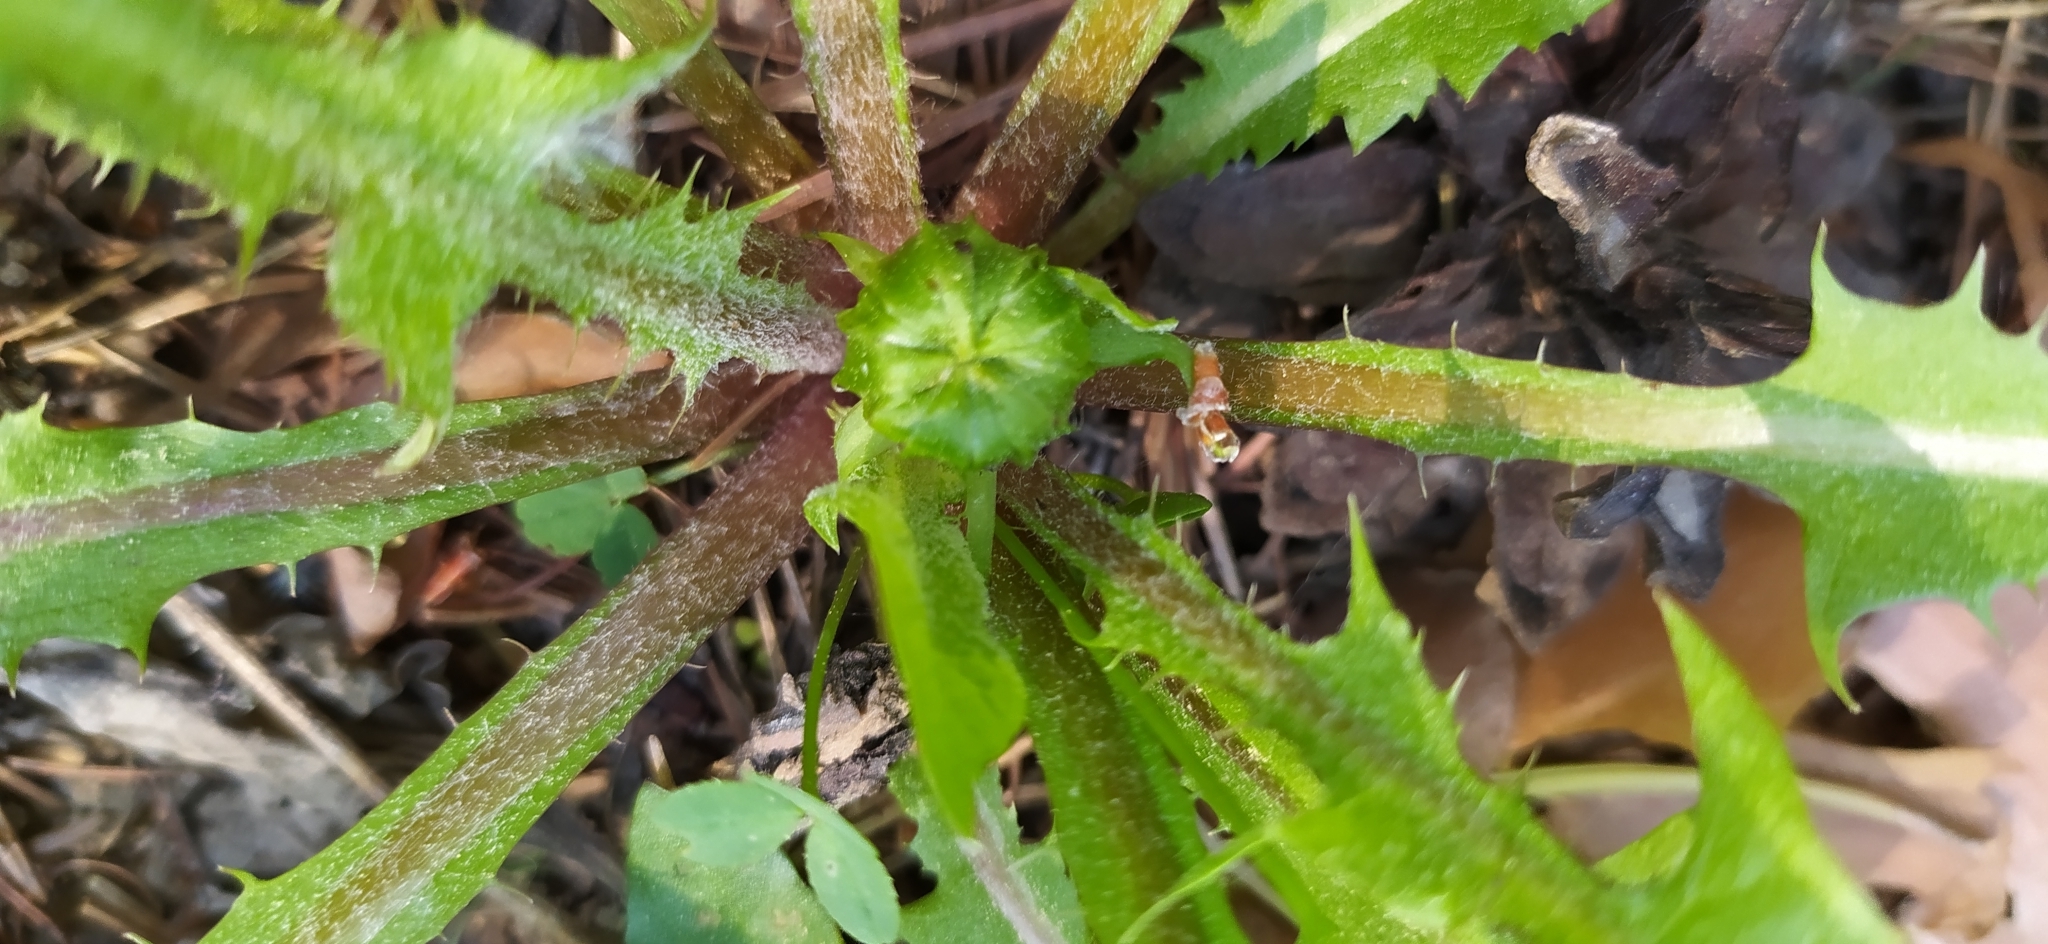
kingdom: Plantae
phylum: Tracheophyta
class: Magnoliopsida
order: Asterales
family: Asteraceae
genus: Taraxacum
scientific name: Taraxacum officinale
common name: Common dandelion
